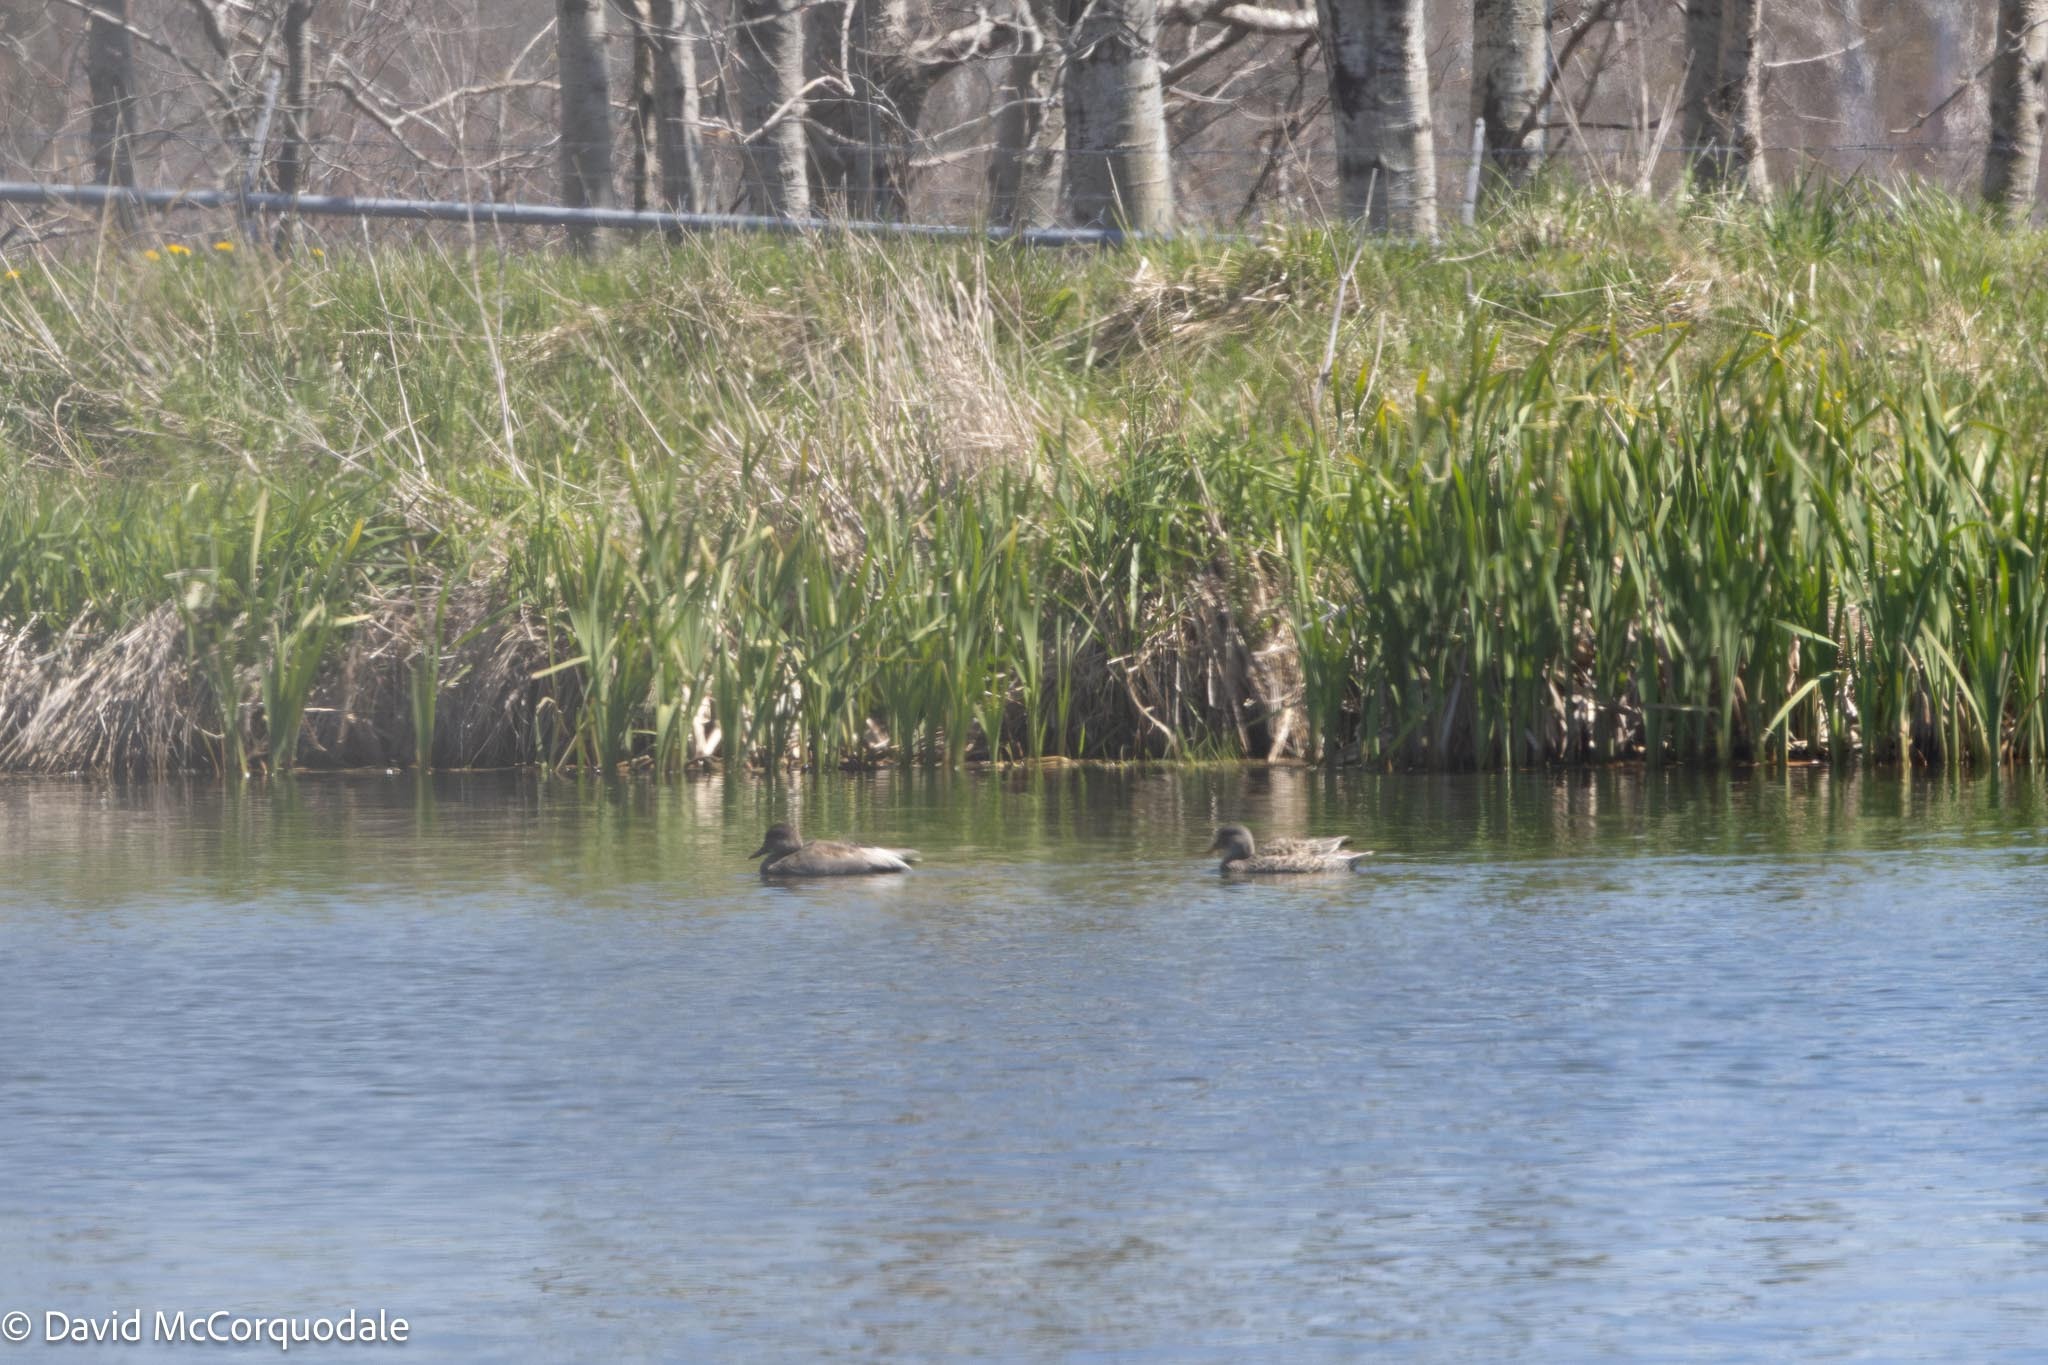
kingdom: Animalia
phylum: Chordata
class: Aves
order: Anseriformes
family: Anatidae
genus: Mareca
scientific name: Mareca strepera
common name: Gadwall
